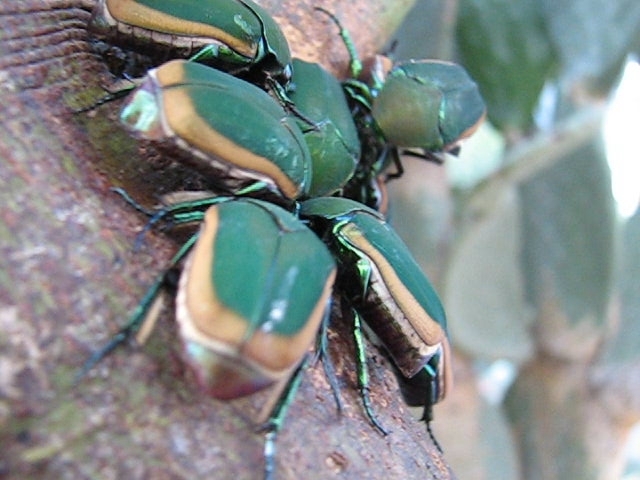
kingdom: Animalia
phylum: Arthropoda
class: Insecta
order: Coleoptera
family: Scarabaeidae
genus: Cotinis
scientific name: Cotinis mutabilis
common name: Figeater beetle
